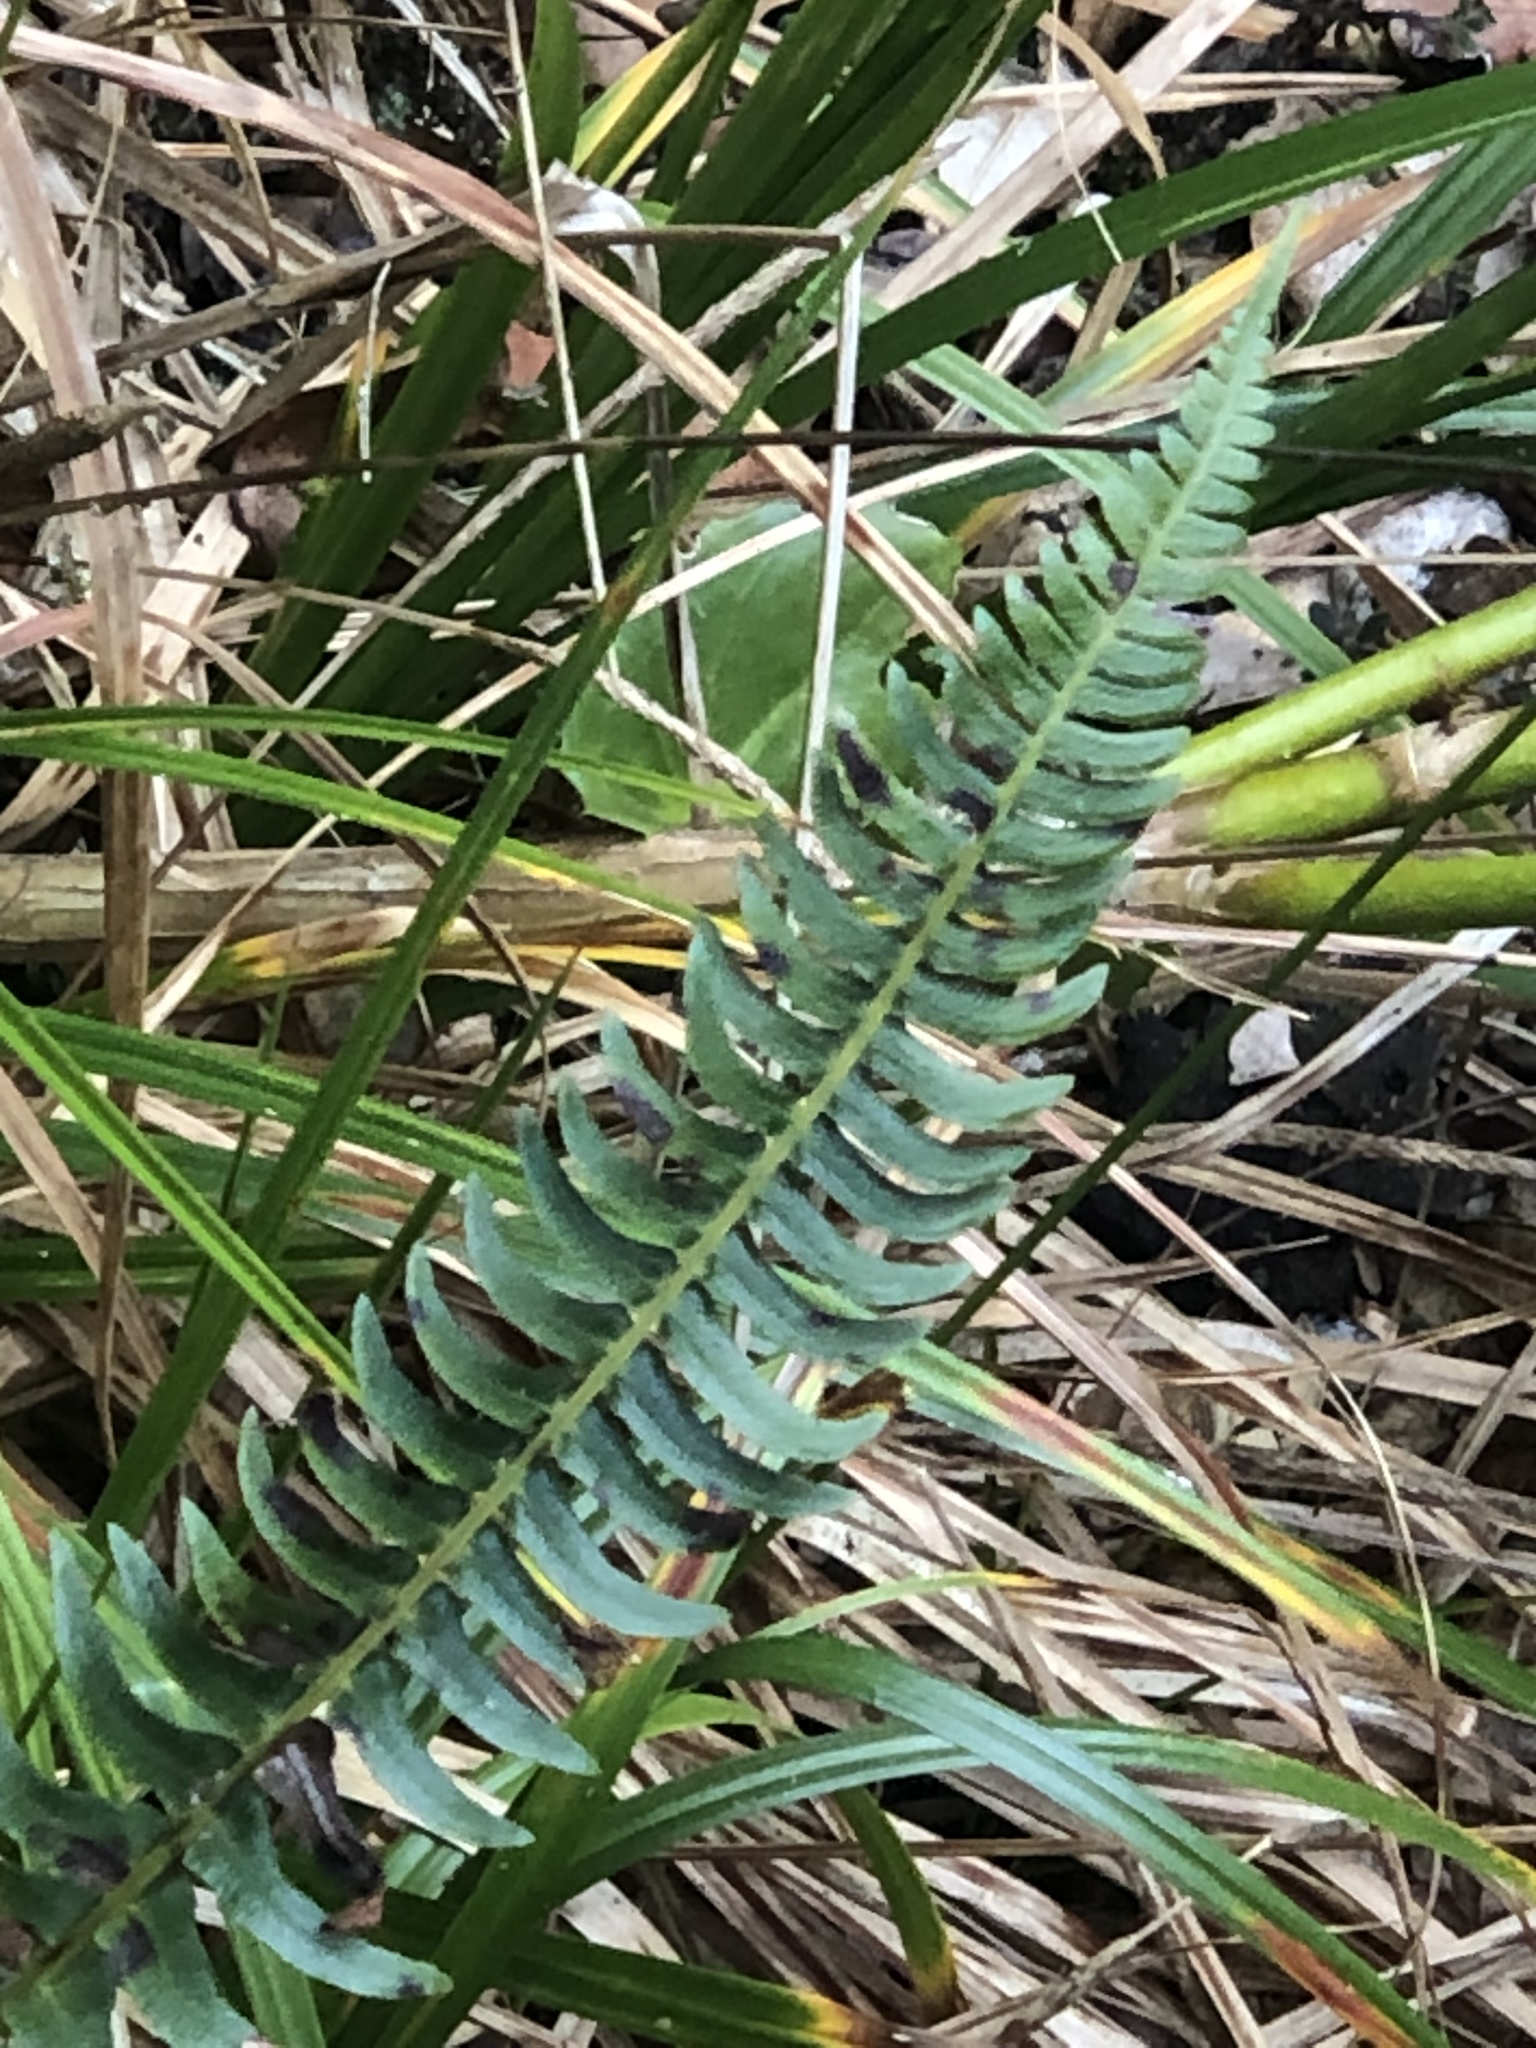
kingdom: Plantae
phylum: Tracheophyta
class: Polypodiopsida
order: Polypodiales
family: Blechnaceae
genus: Blechnum
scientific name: Blechnum hastatum
